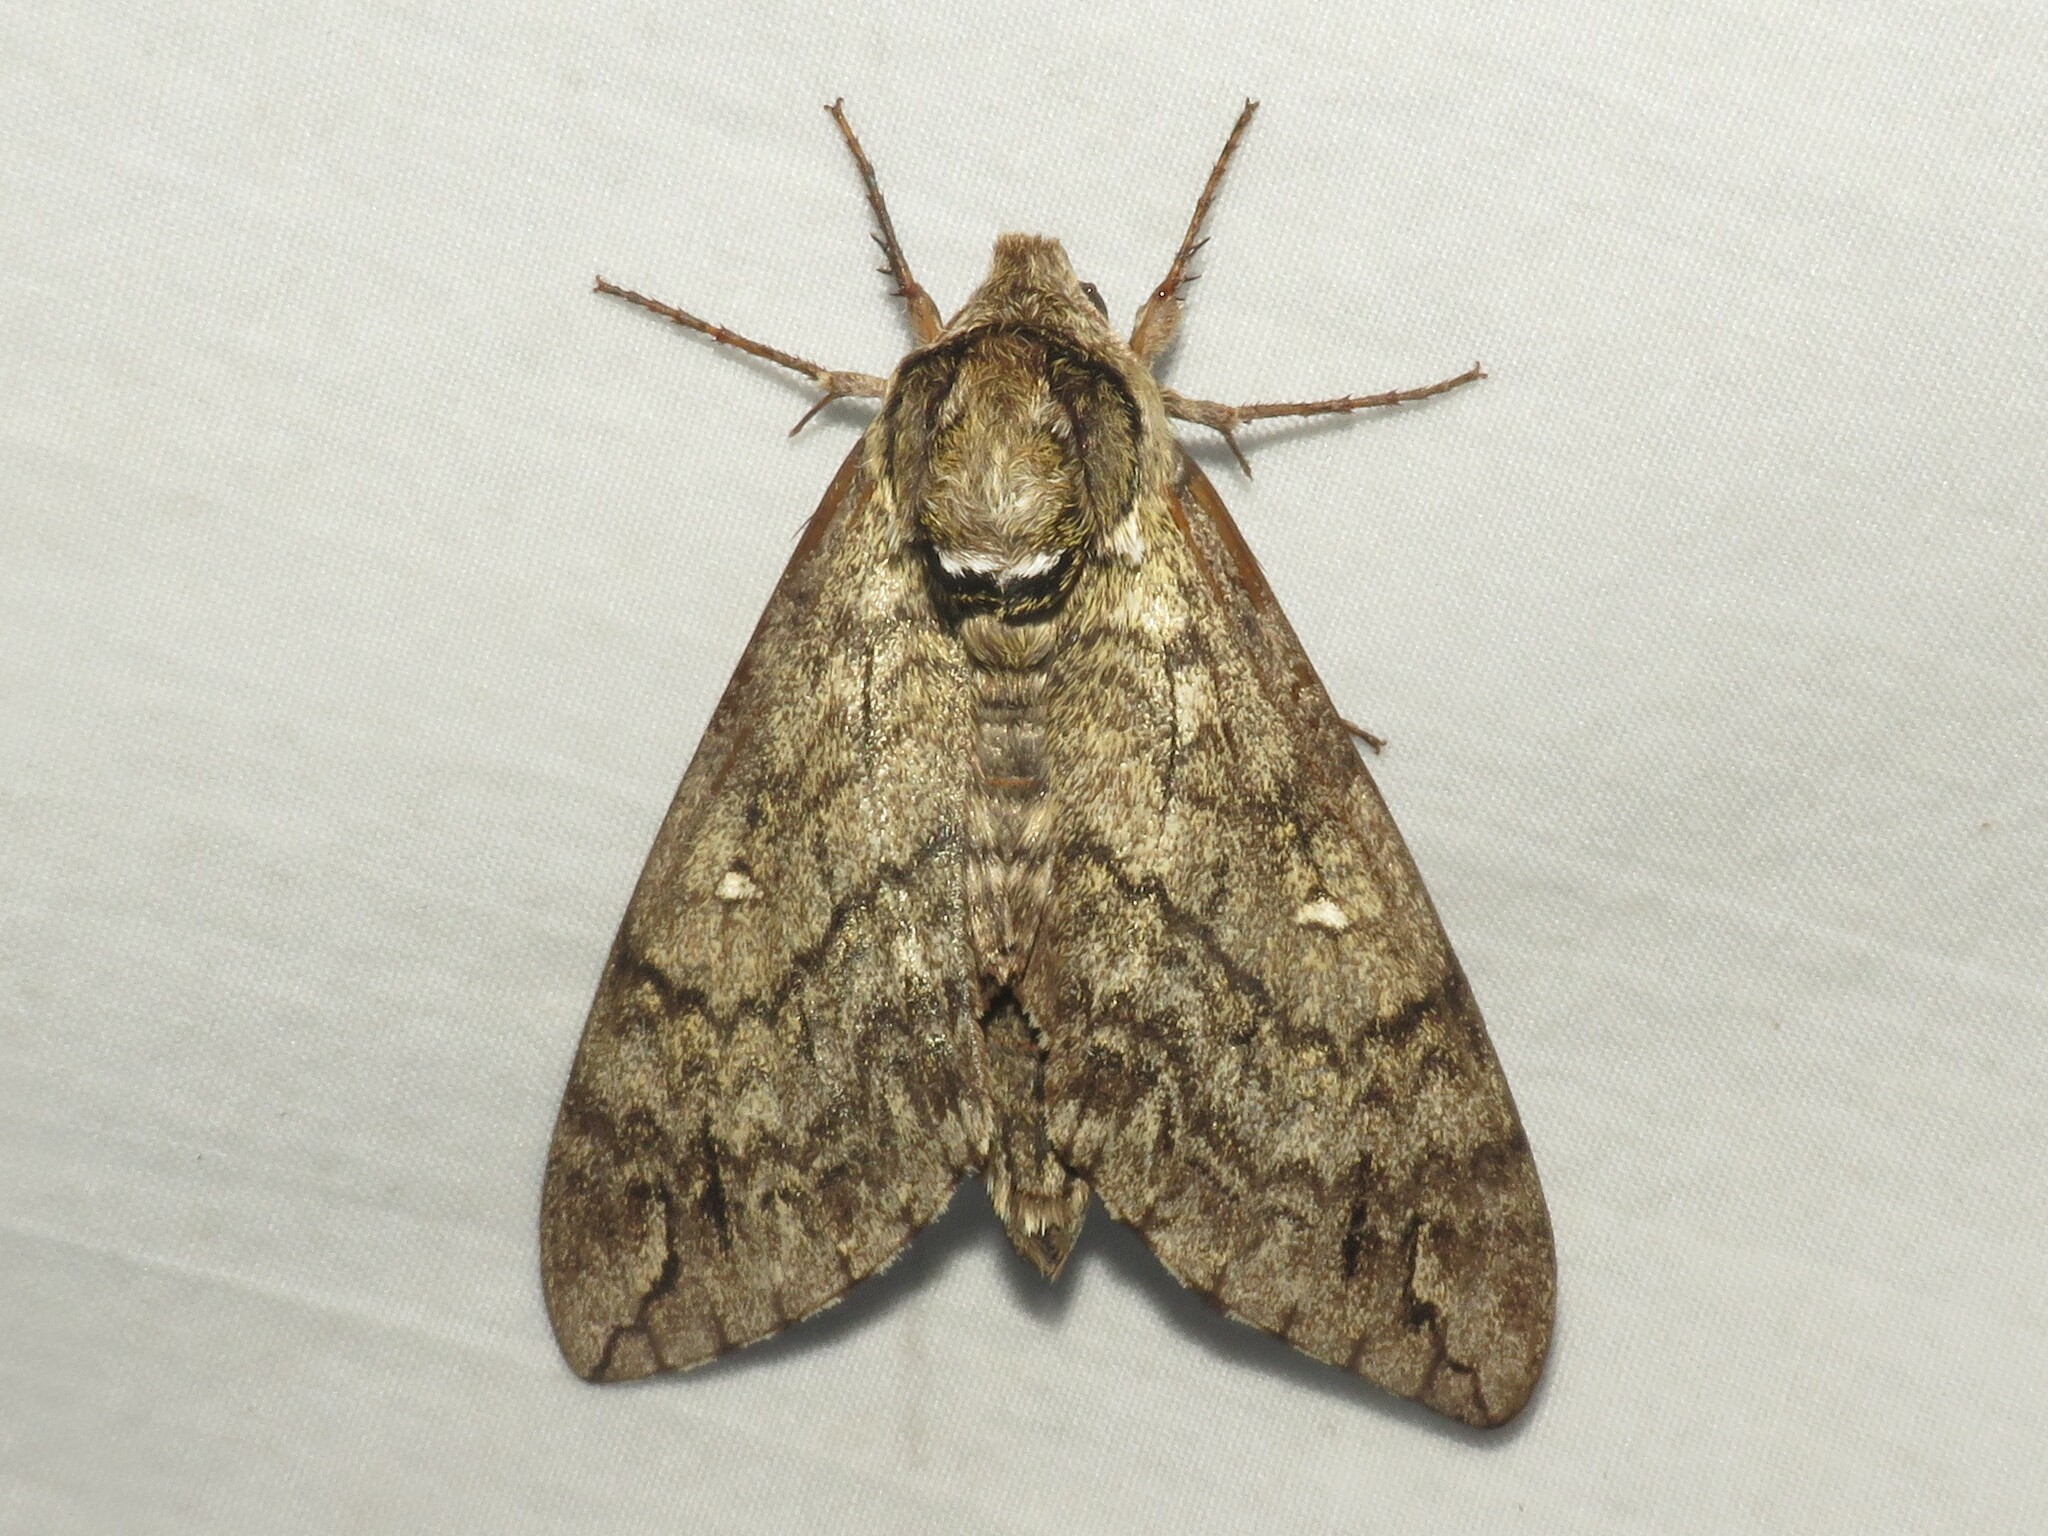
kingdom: Animalia
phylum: Arthropoda
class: Insecta
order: Lepidoptera
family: Sphingidae
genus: Ceratomia
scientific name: Ceratomia undulosa
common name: Waved sphinx
